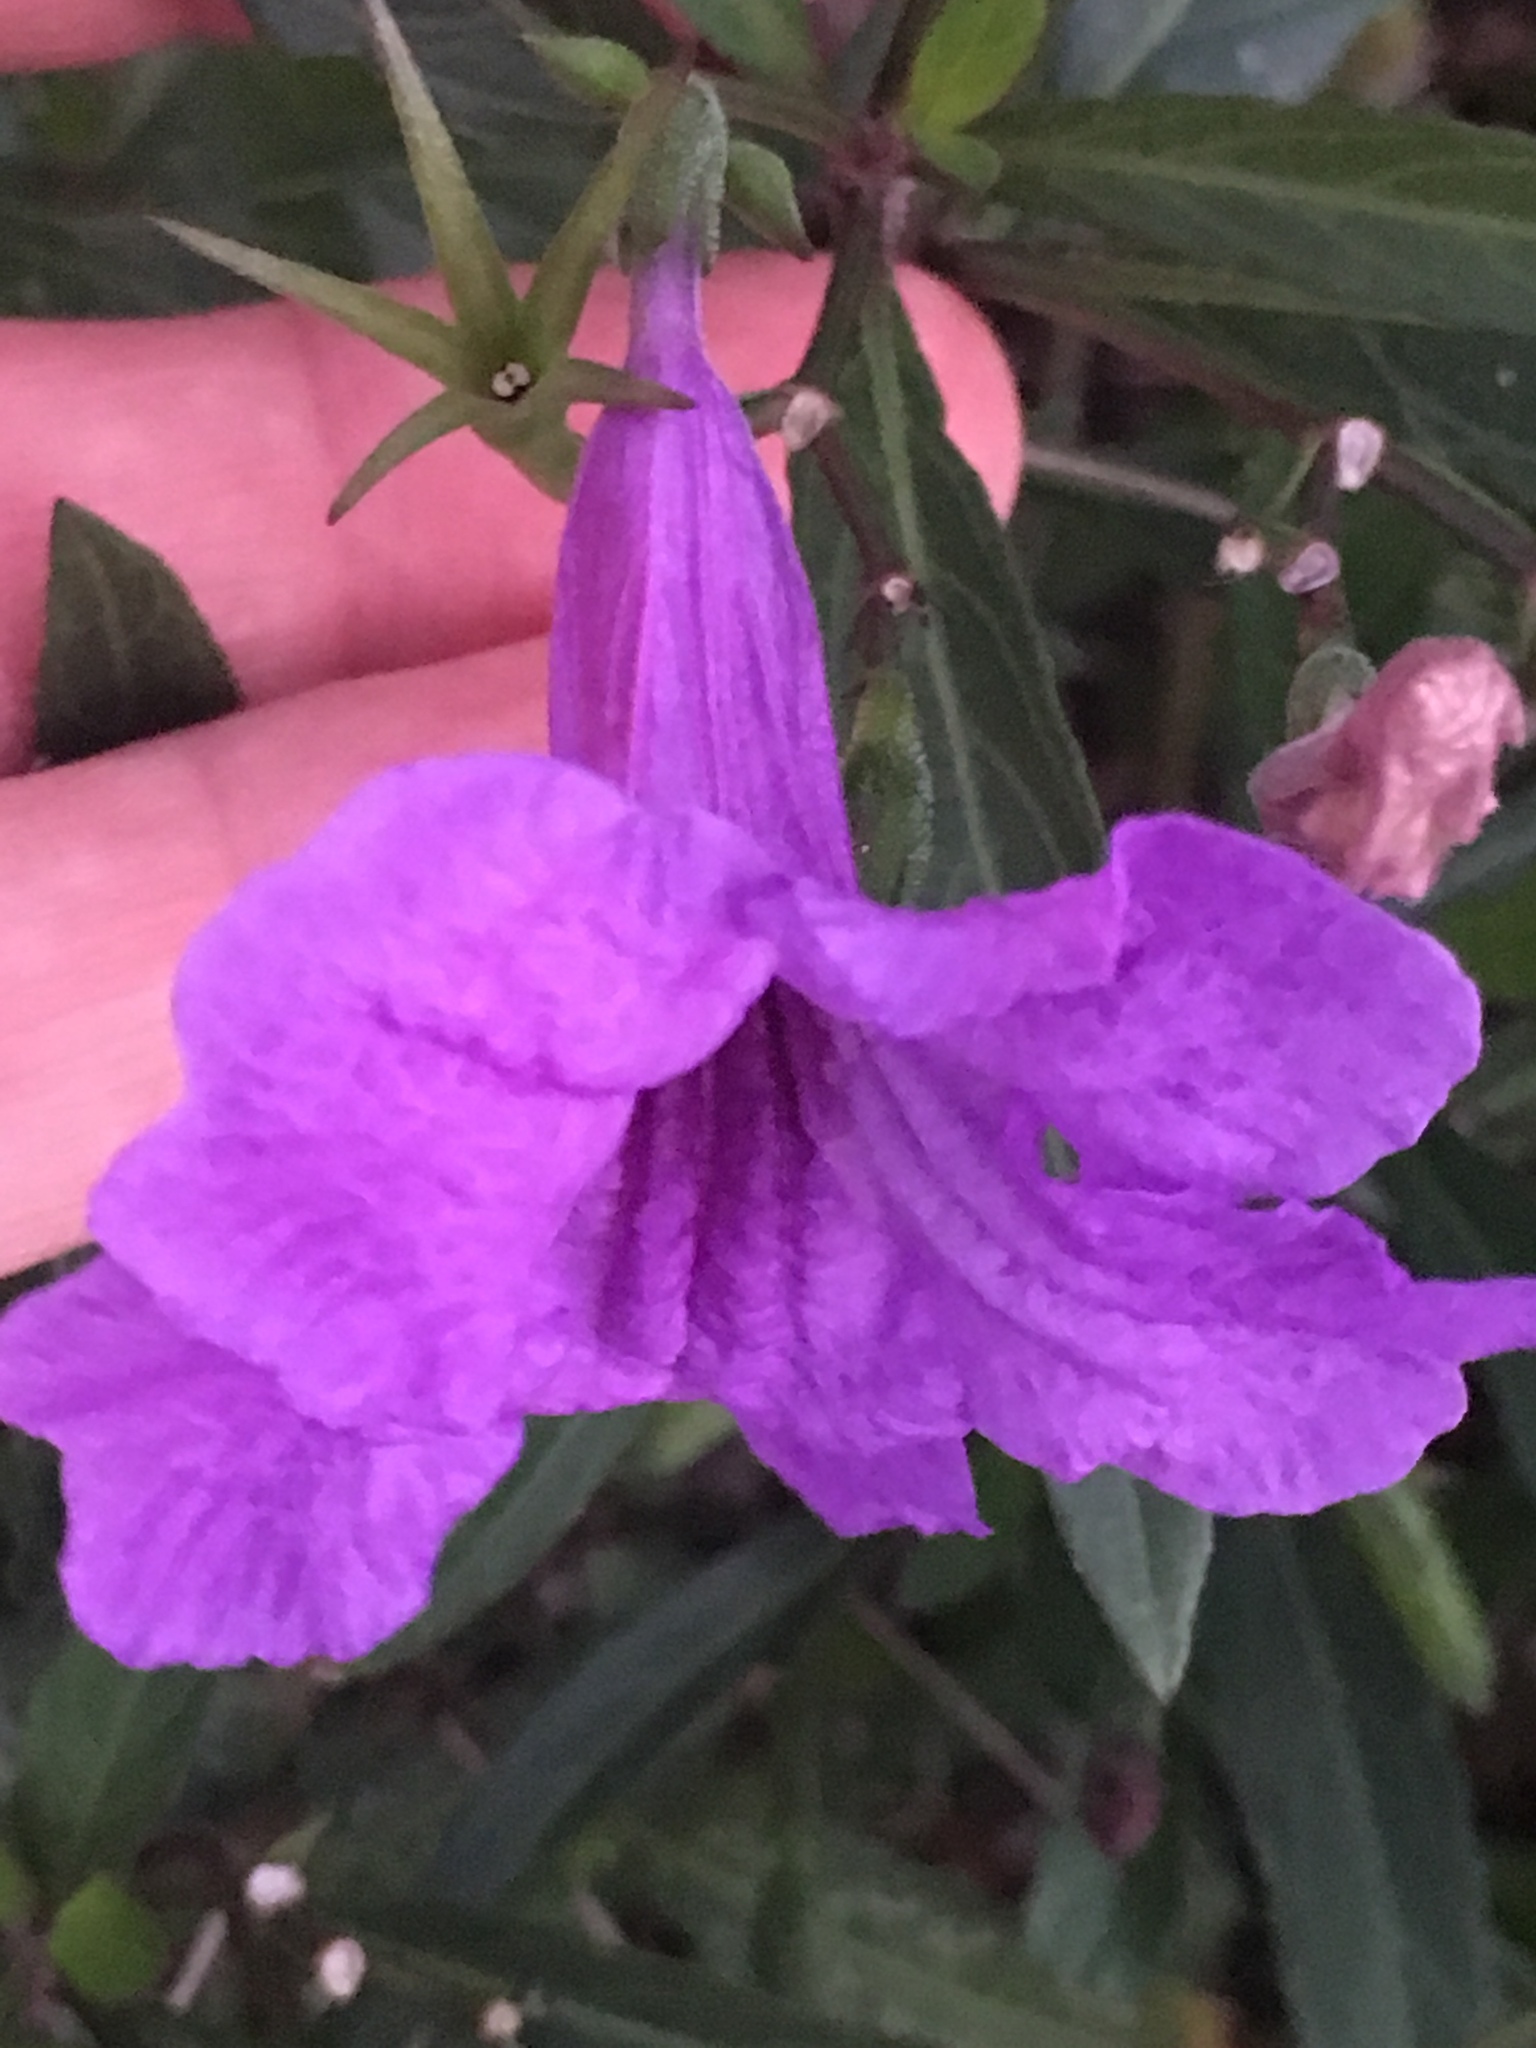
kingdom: Plantae
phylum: Tracheophyta
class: Magnoliopsida
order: Lamiales
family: Acanthaceae
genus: Ruellia
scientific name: Ruellia simplex
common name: Softseed wild petunia
